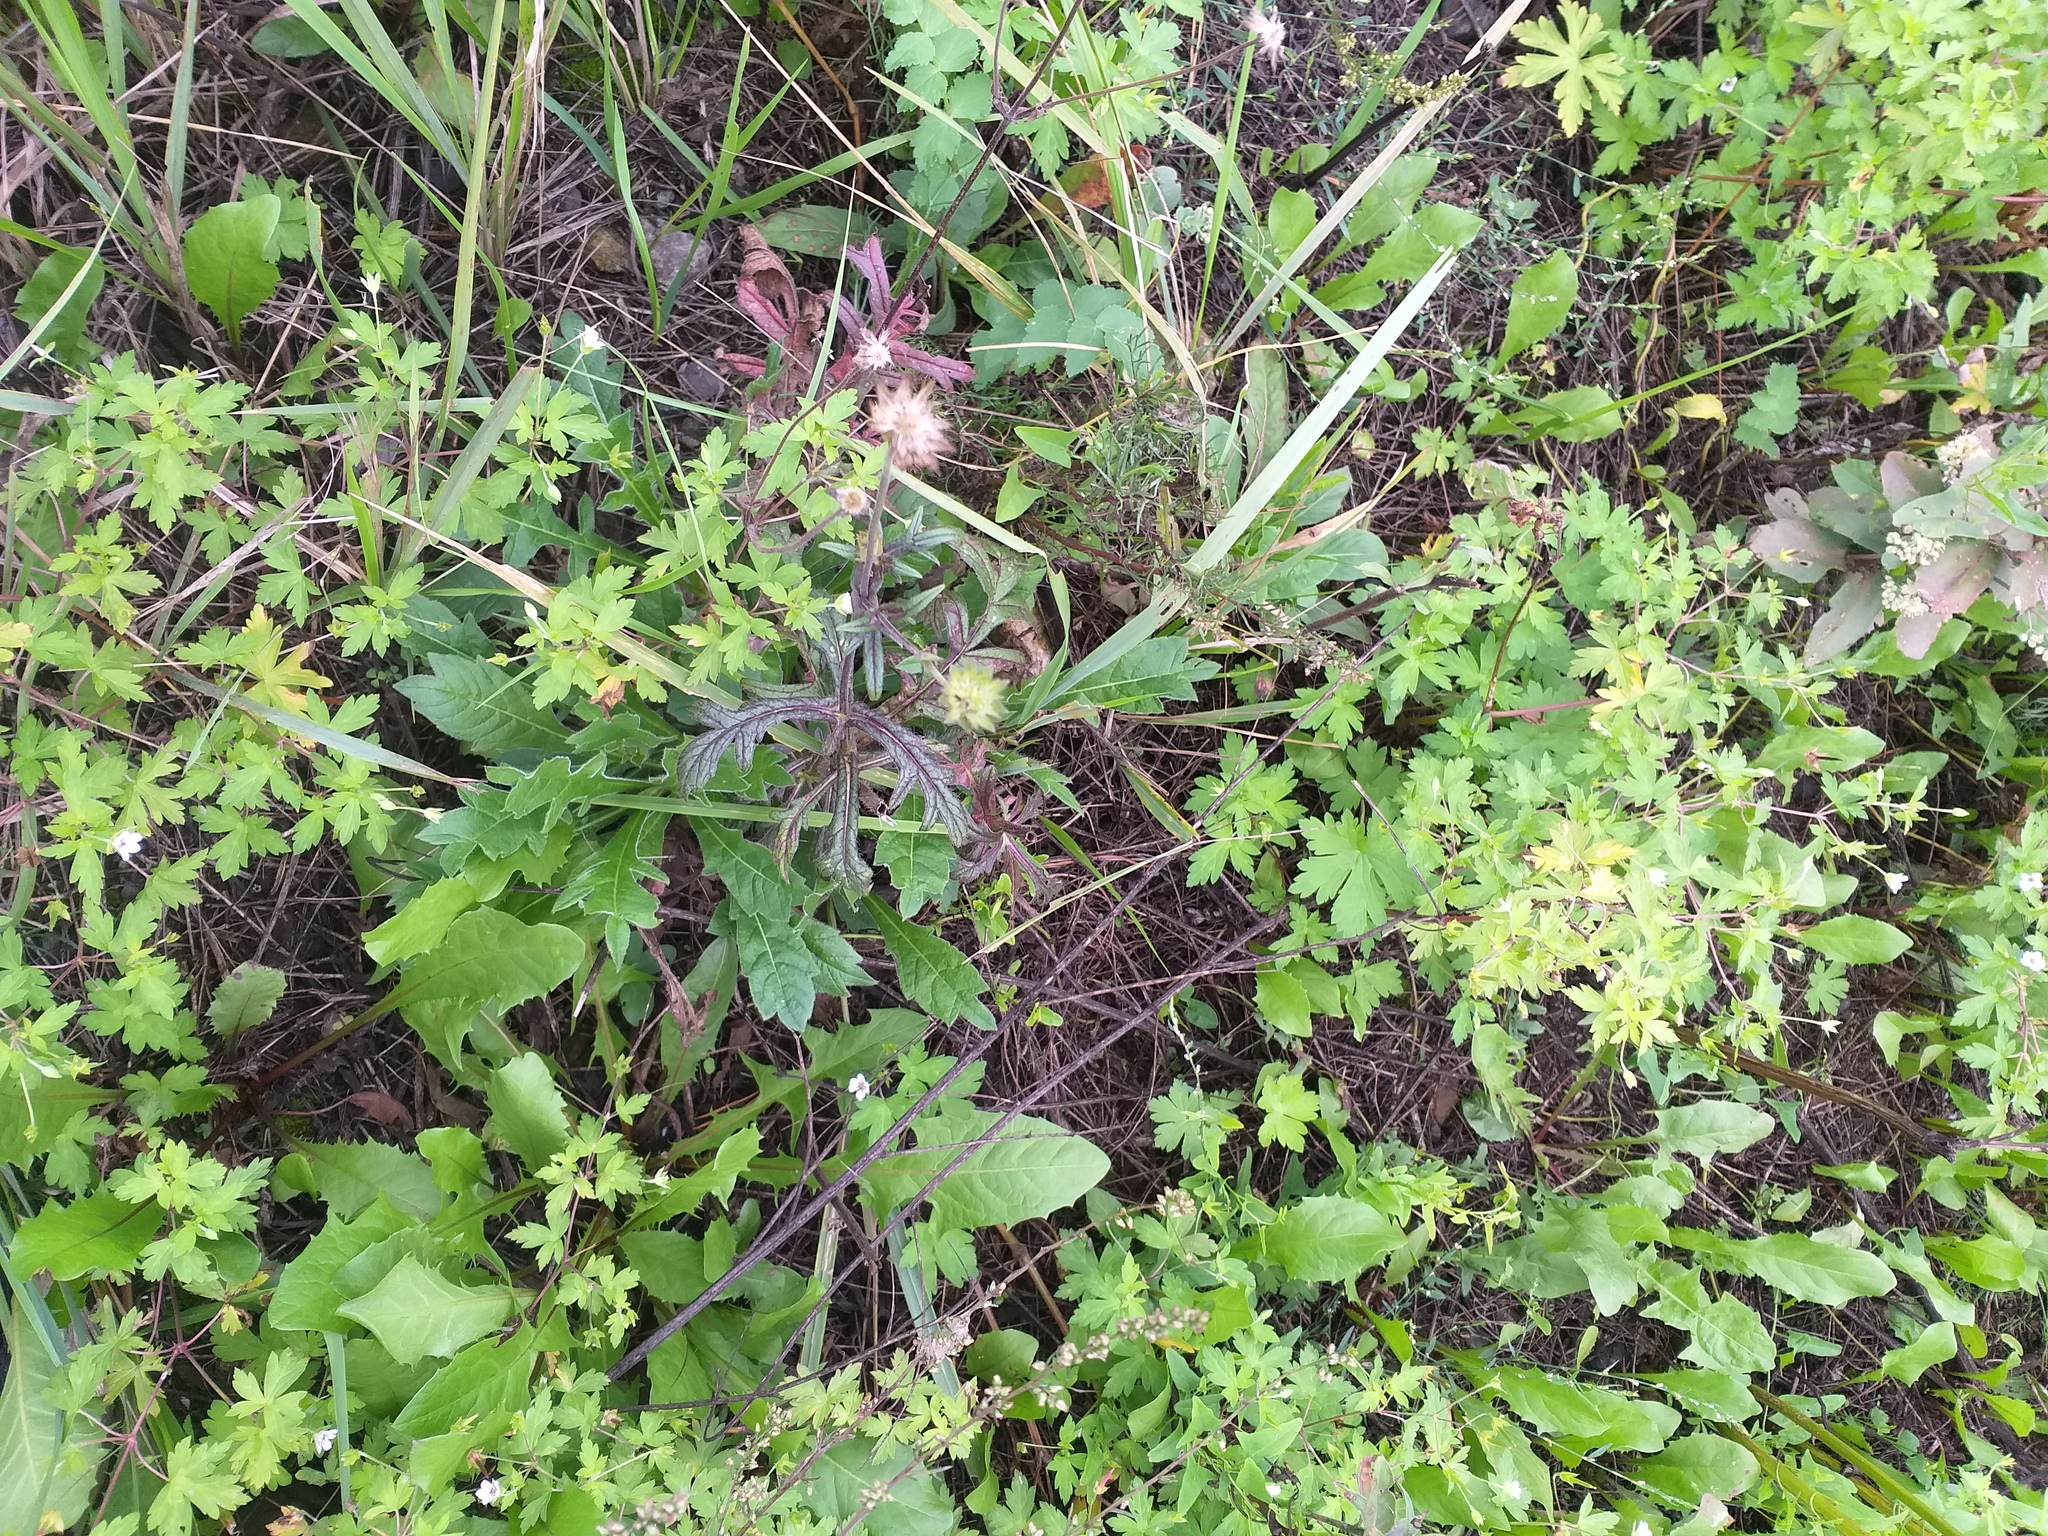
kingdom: Plantae
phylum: Tracheophyta
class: Magnoliopsida
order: Dipsacales
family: Caprifoliaceae
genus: Knautia
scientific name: Knautia arvensis
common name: Field scabiosa
